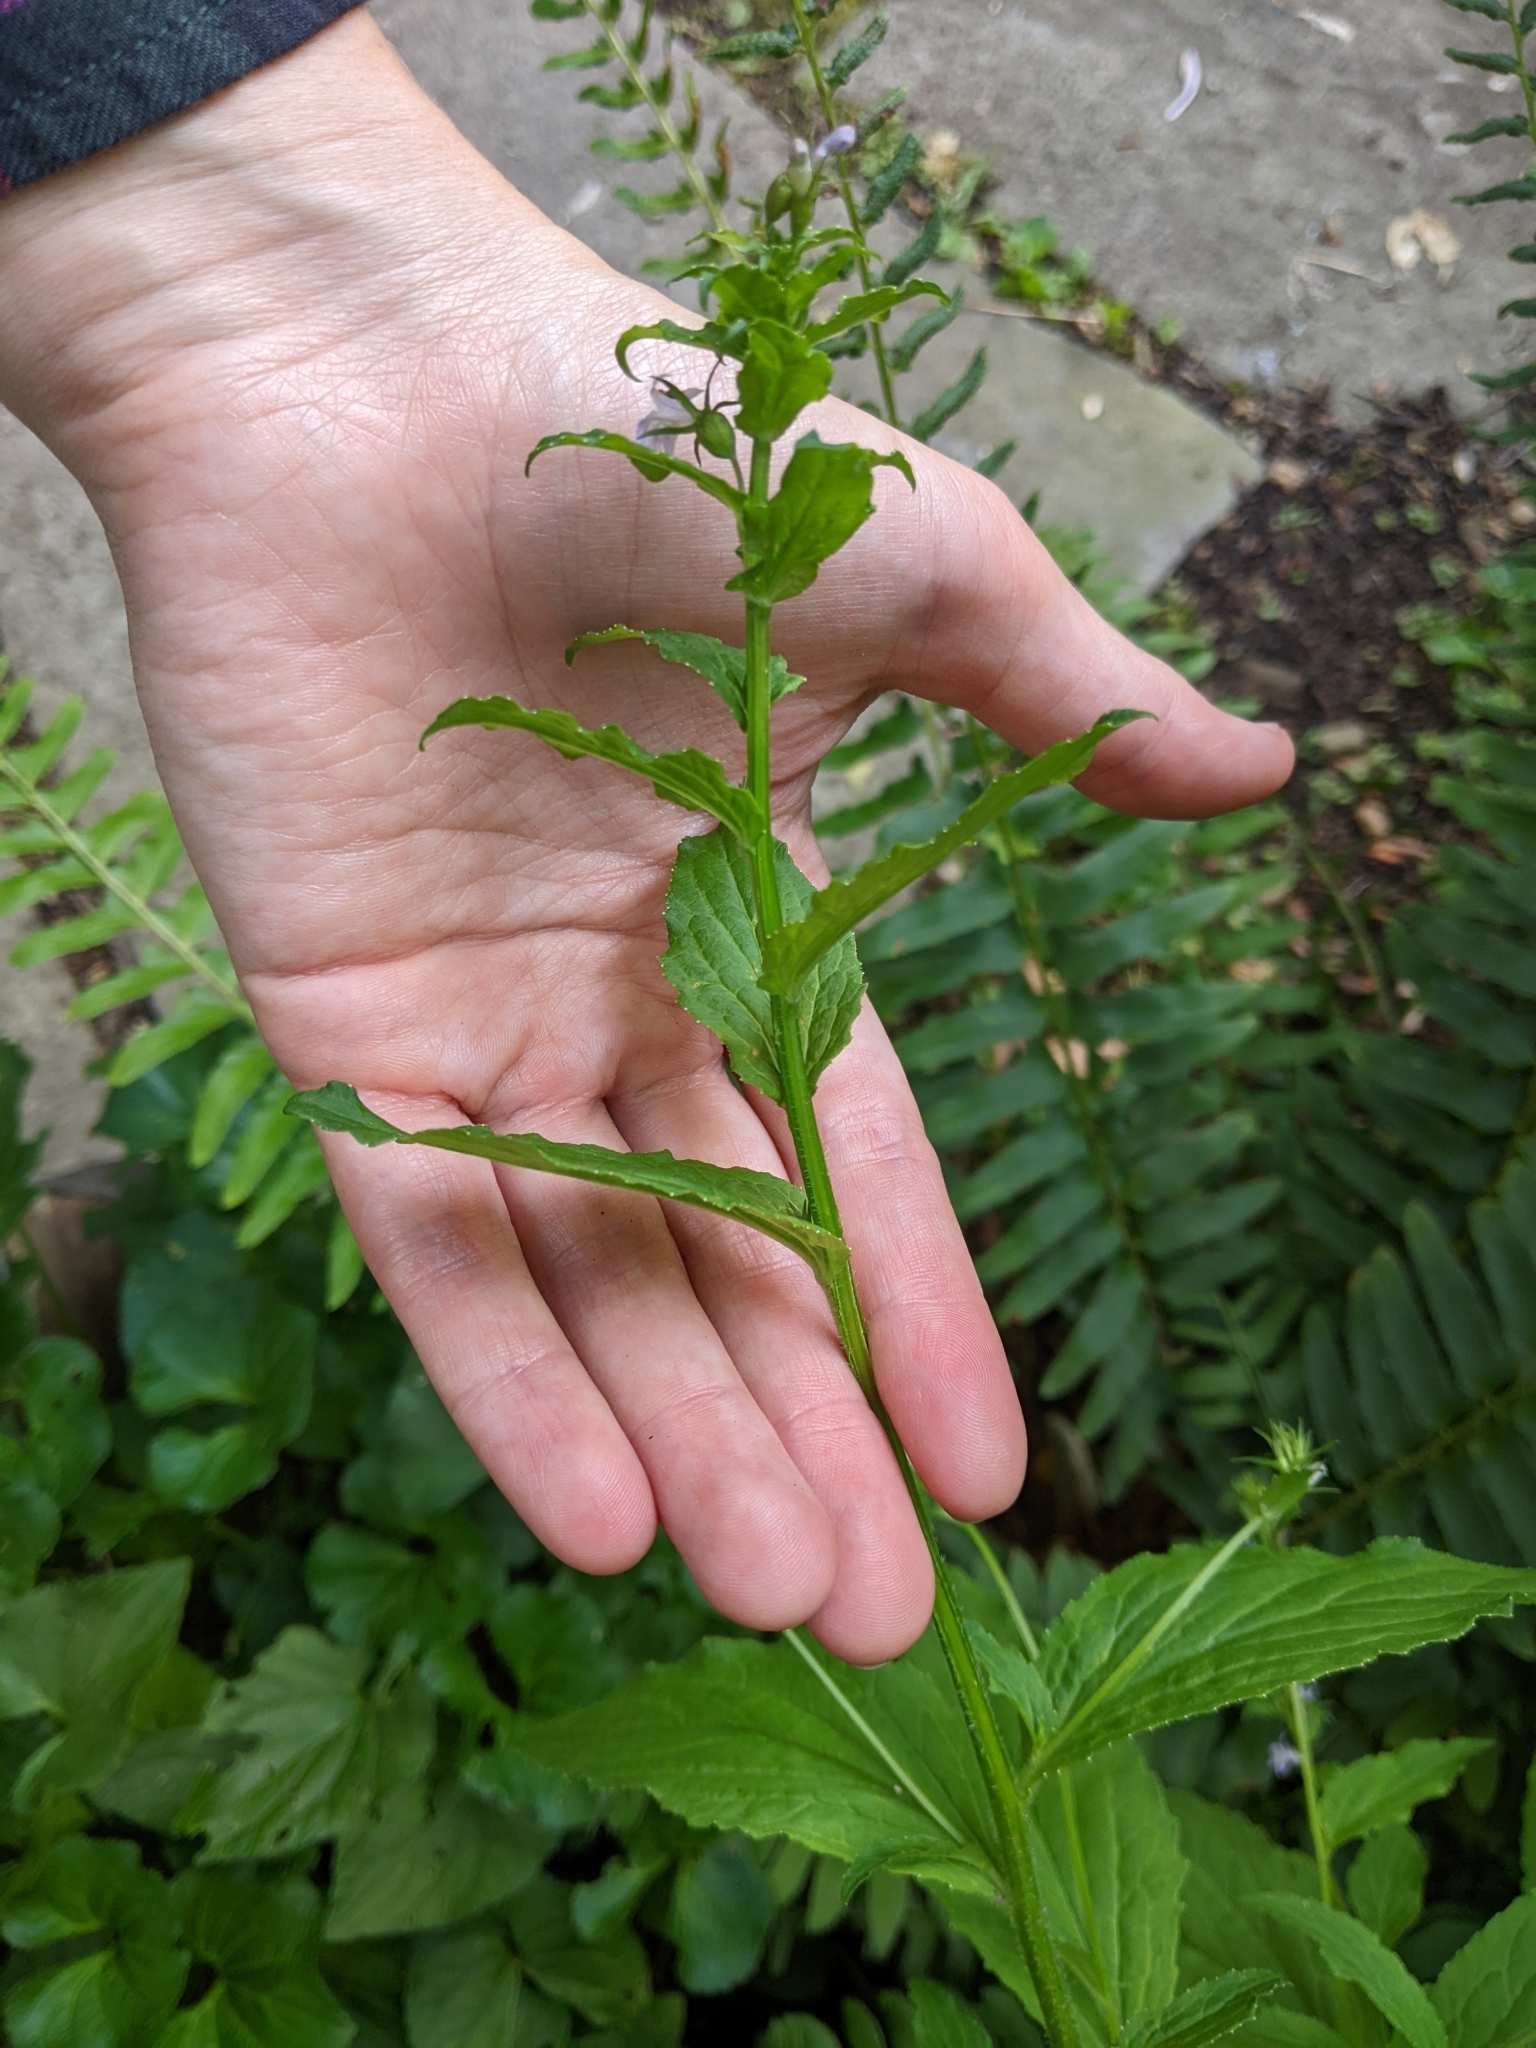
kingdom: Plantae
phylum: Tracheophyta
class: Magnoliopsida
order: Asterales
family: Campanulaceae
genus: Lobelia
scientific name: Lobelia inflata
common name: Indian tobacco
